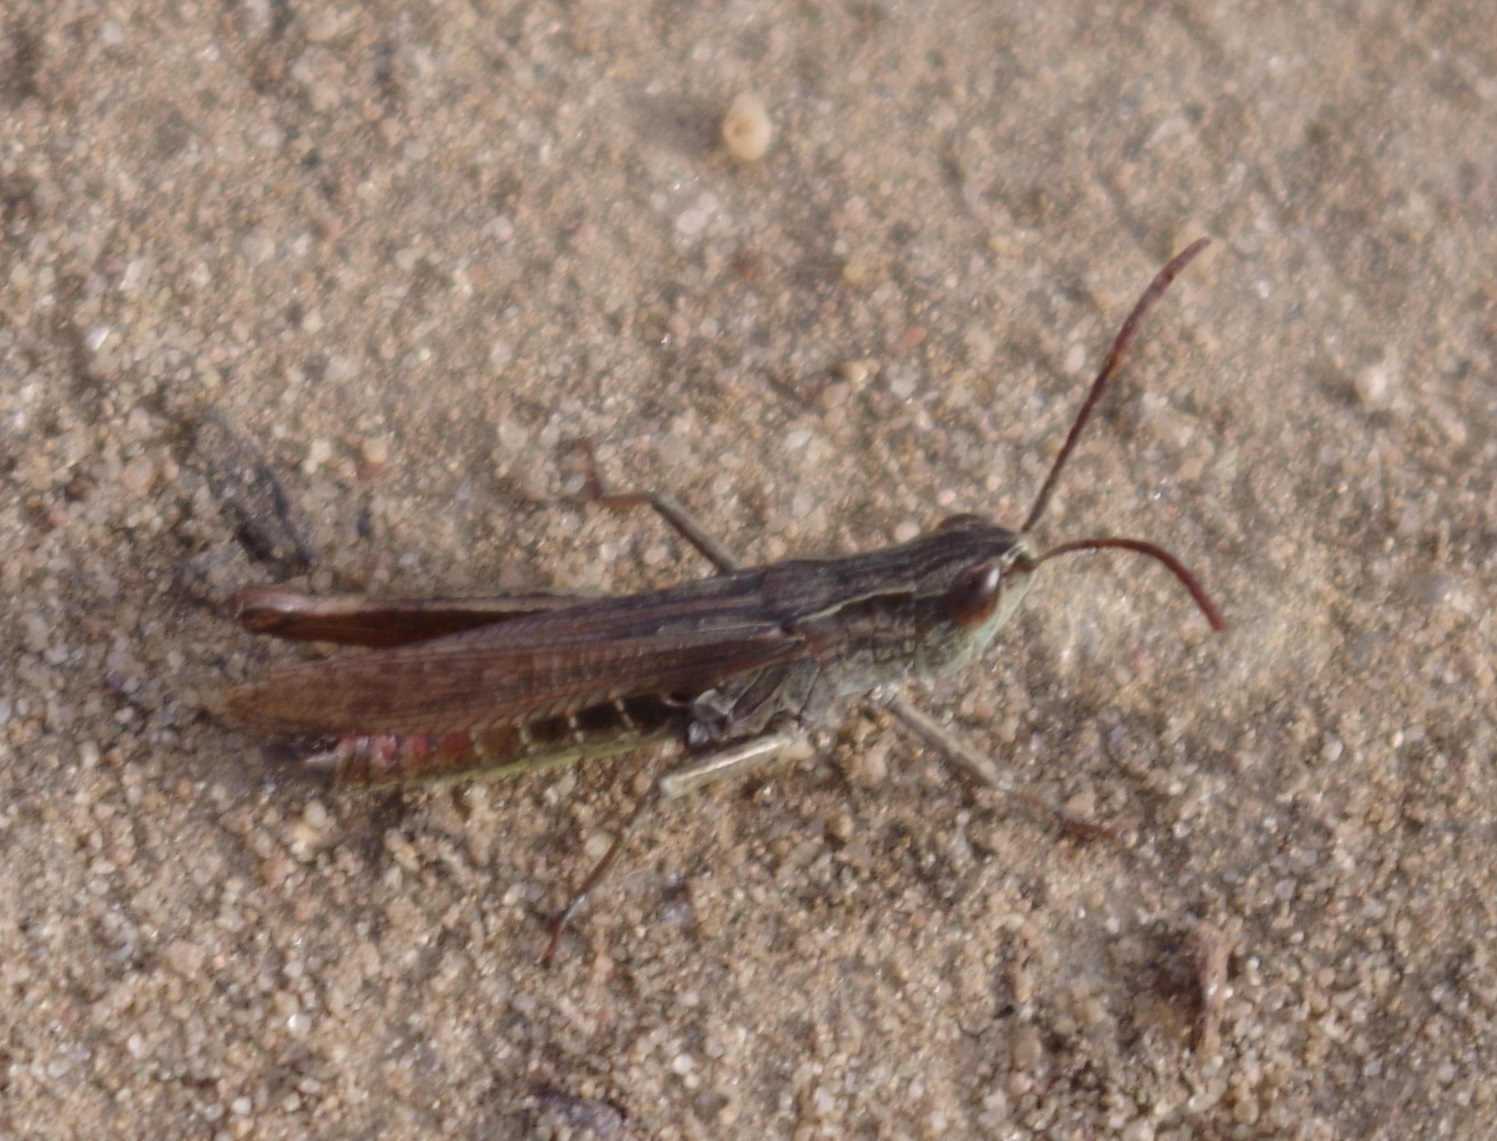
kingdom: Animalia
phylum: Arthropoda
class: Insecta
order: Orthoptera
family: Acrididae
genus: Chorthippus
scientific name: Chorthippus dorsatus
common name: Steppe grasshopper
